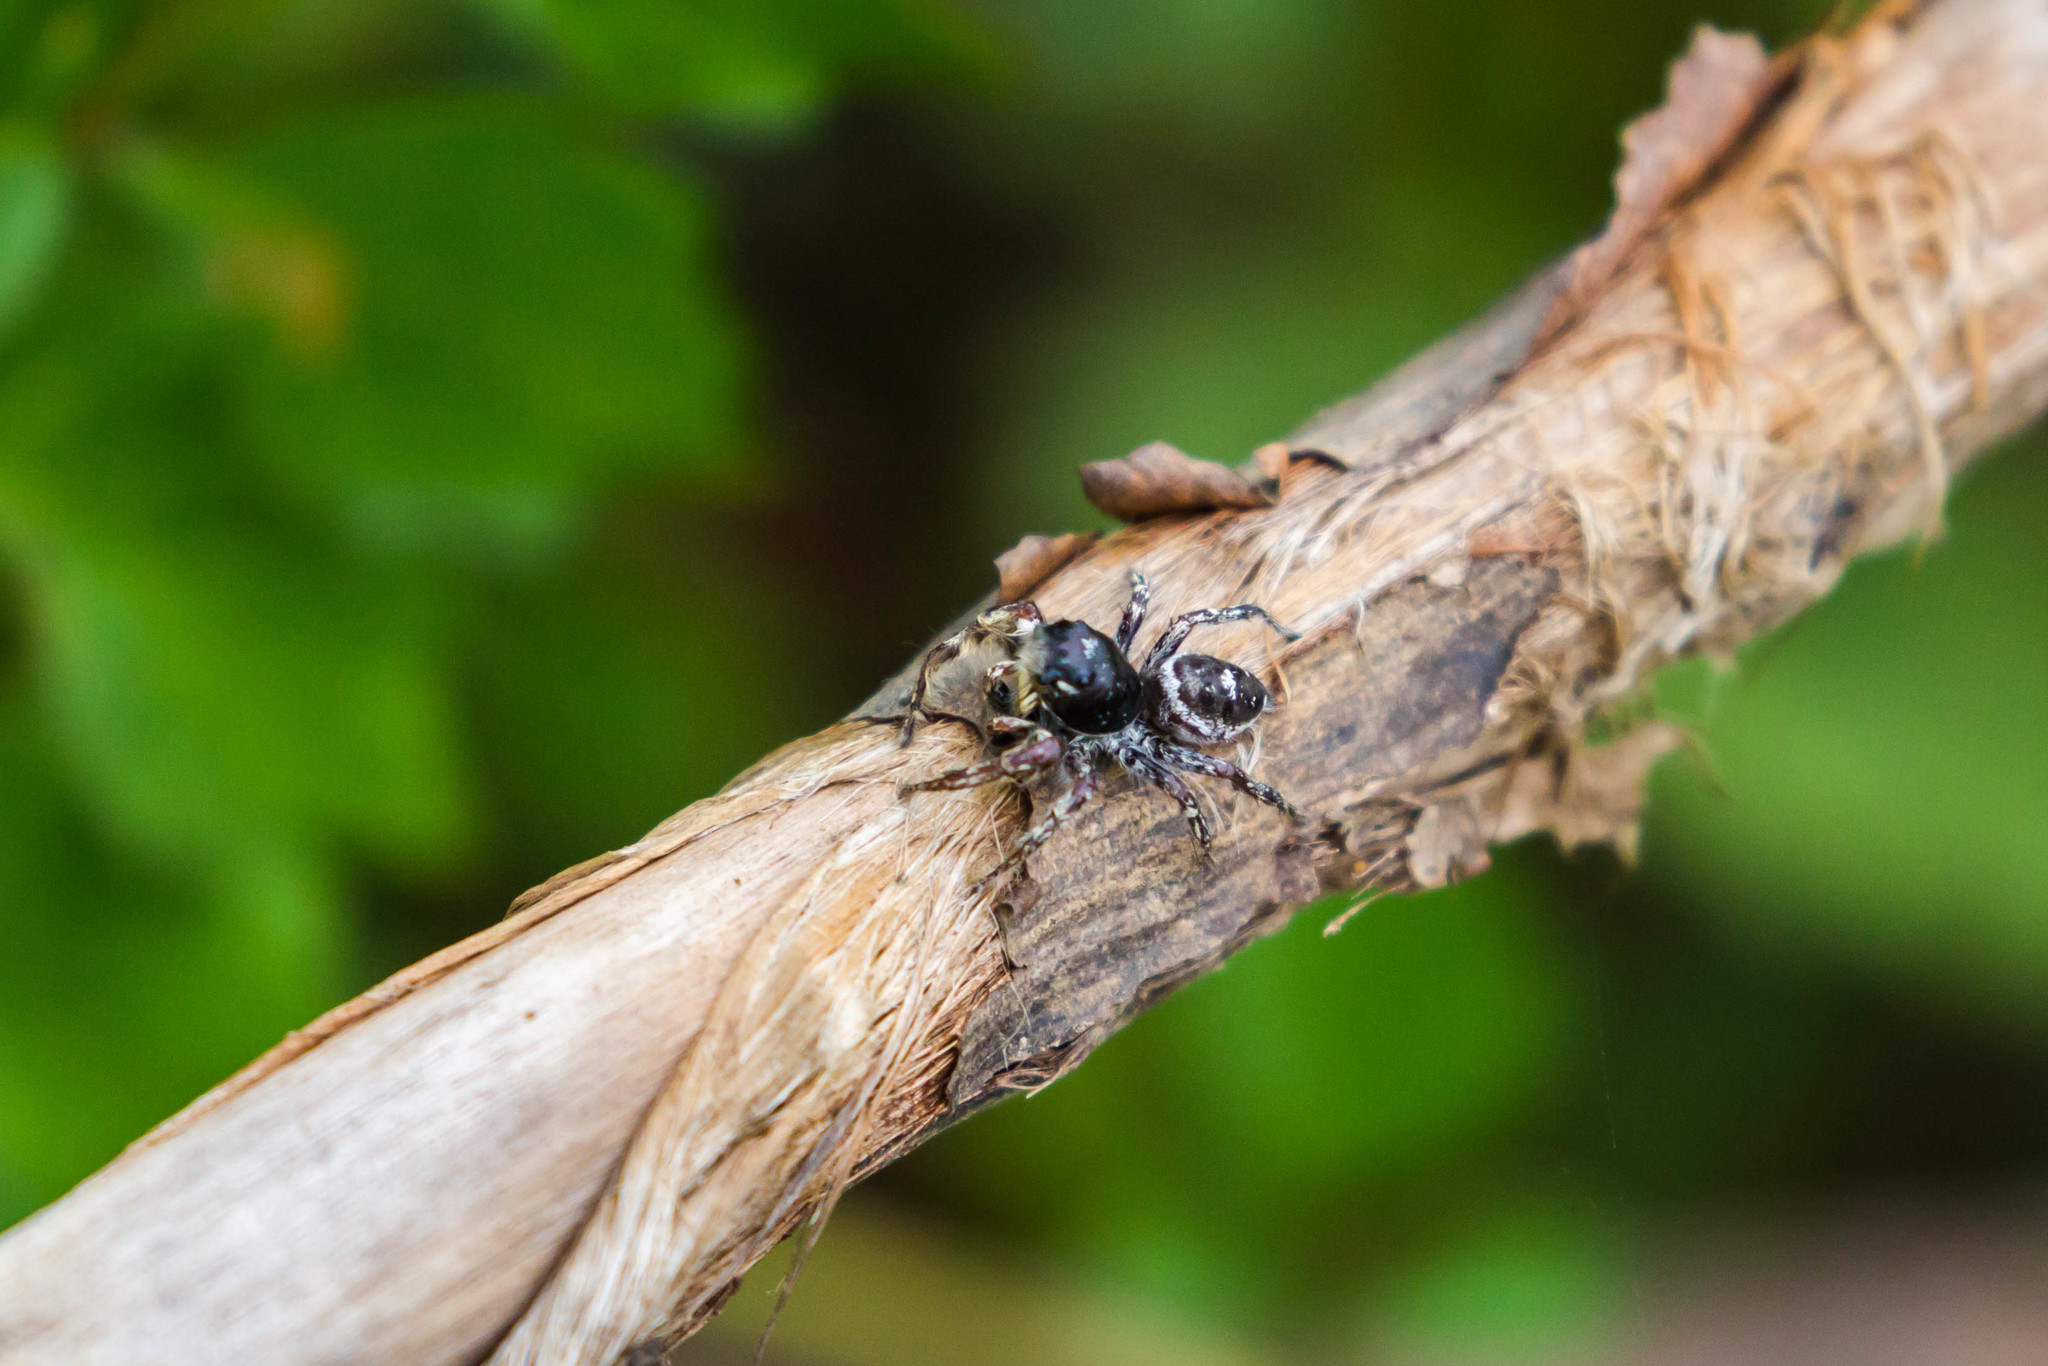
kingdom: Animalia
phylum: Arthropoda
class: Arachnida
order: Araneae
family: Salticidae
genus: Phidippus
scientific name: Phidippus putnami
